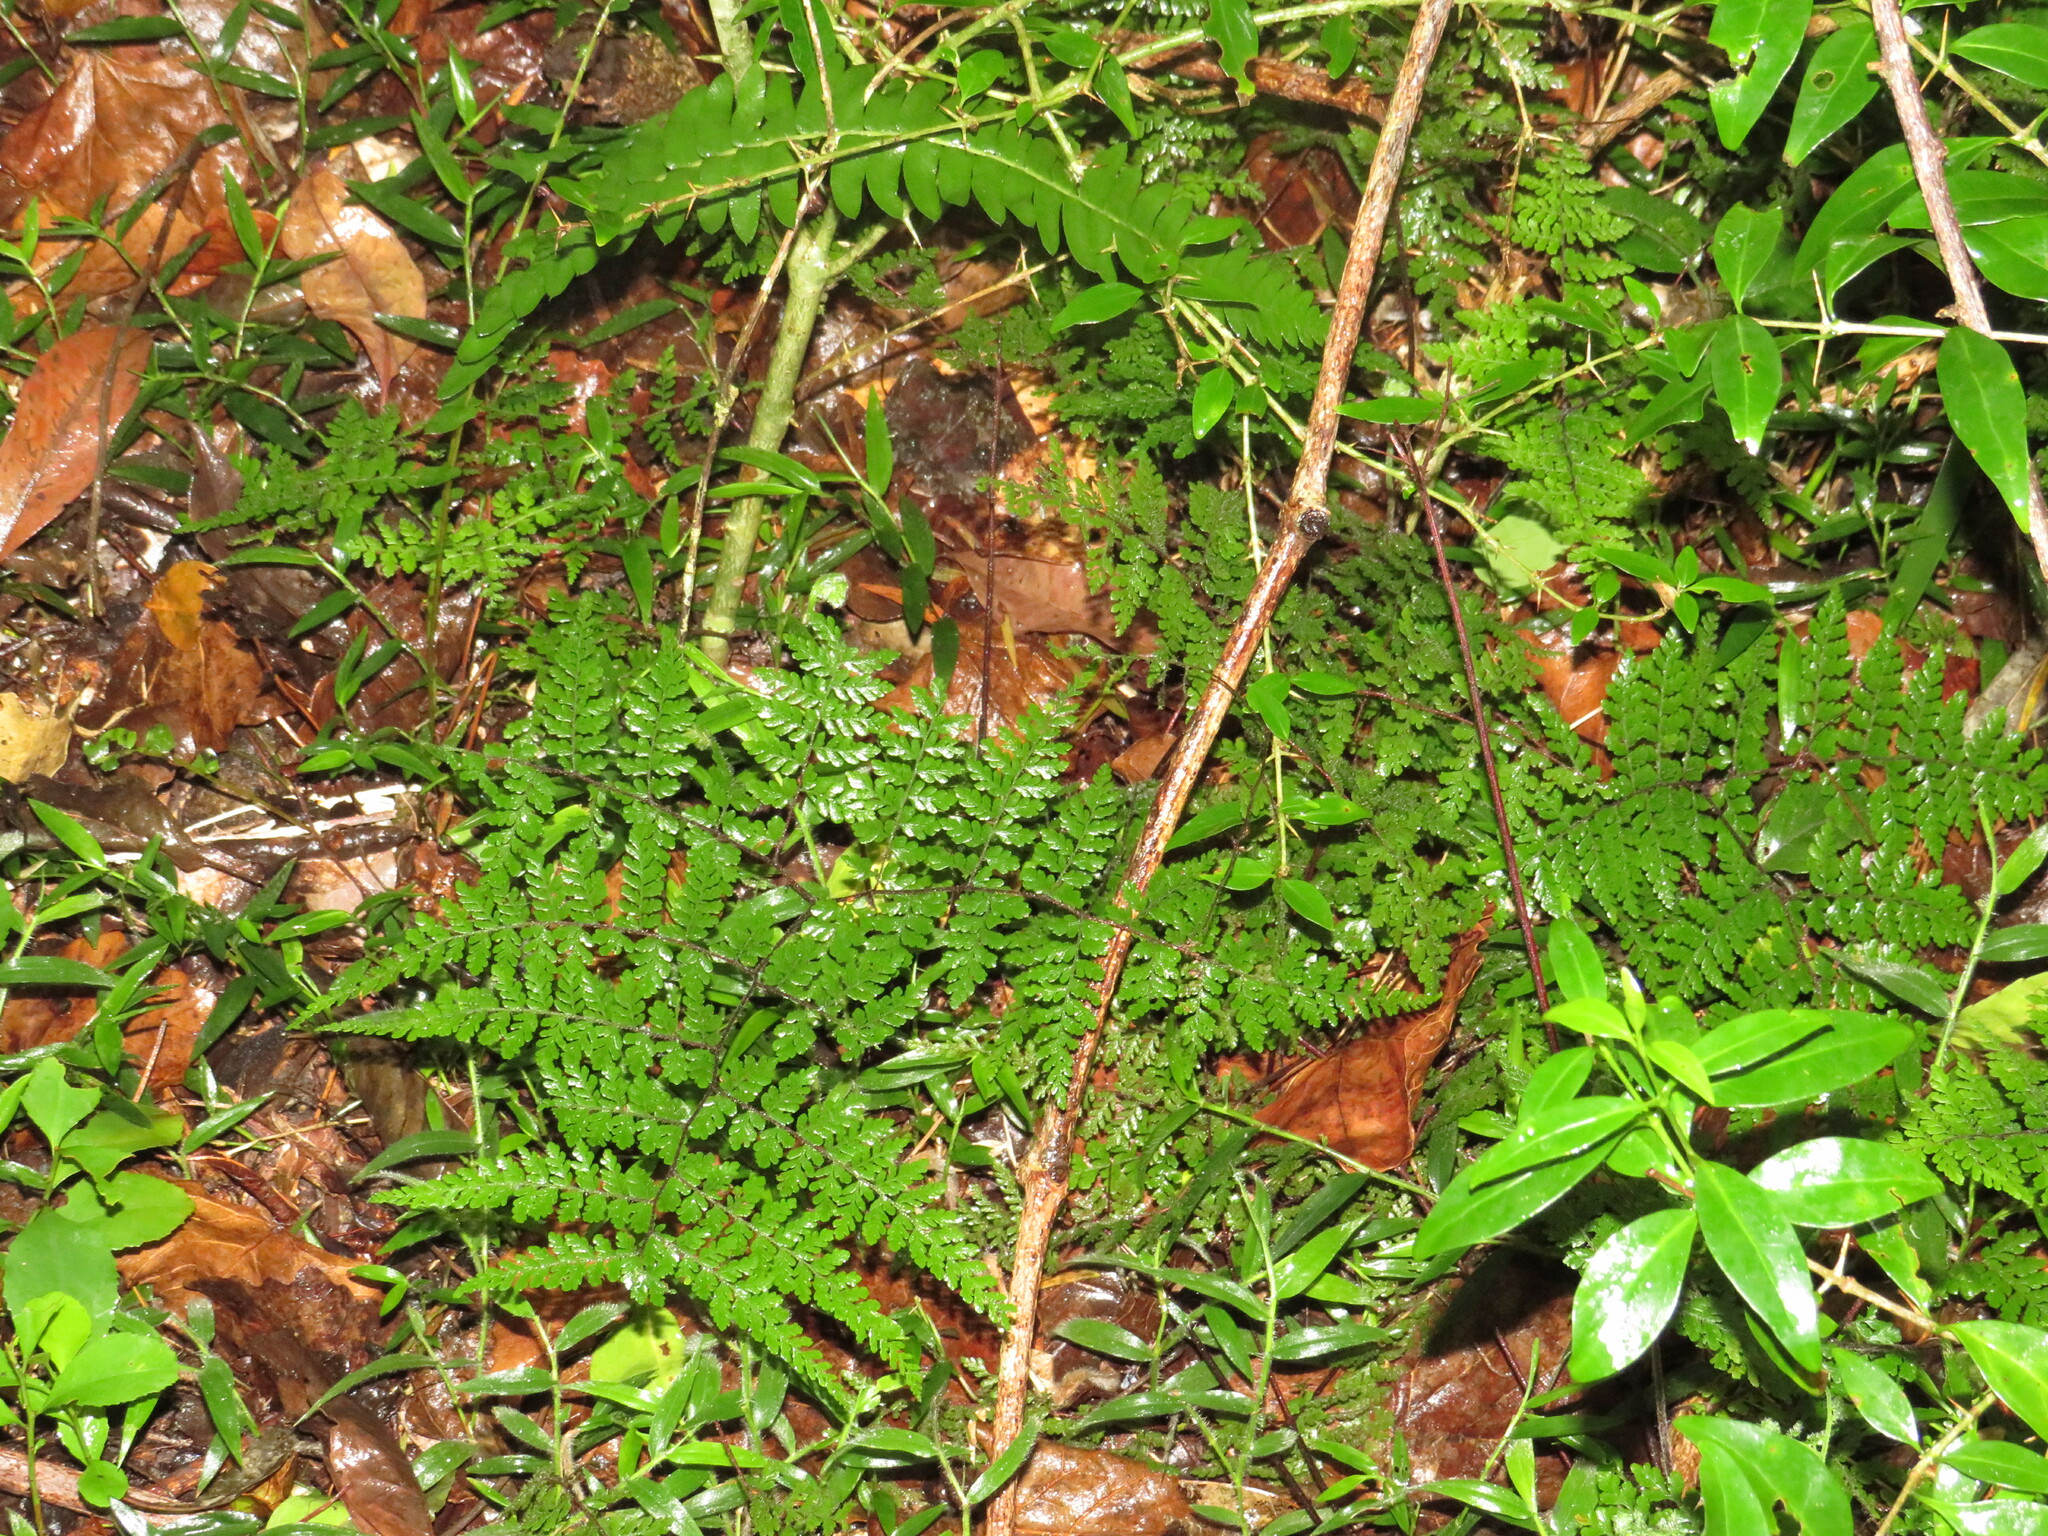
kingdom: Plantae
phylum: Tracheophyta
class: Polypodiopsida
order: Polypodiales
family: Pteridaceae
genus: Cheilanthes
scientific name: Cheilanthes bergiana
